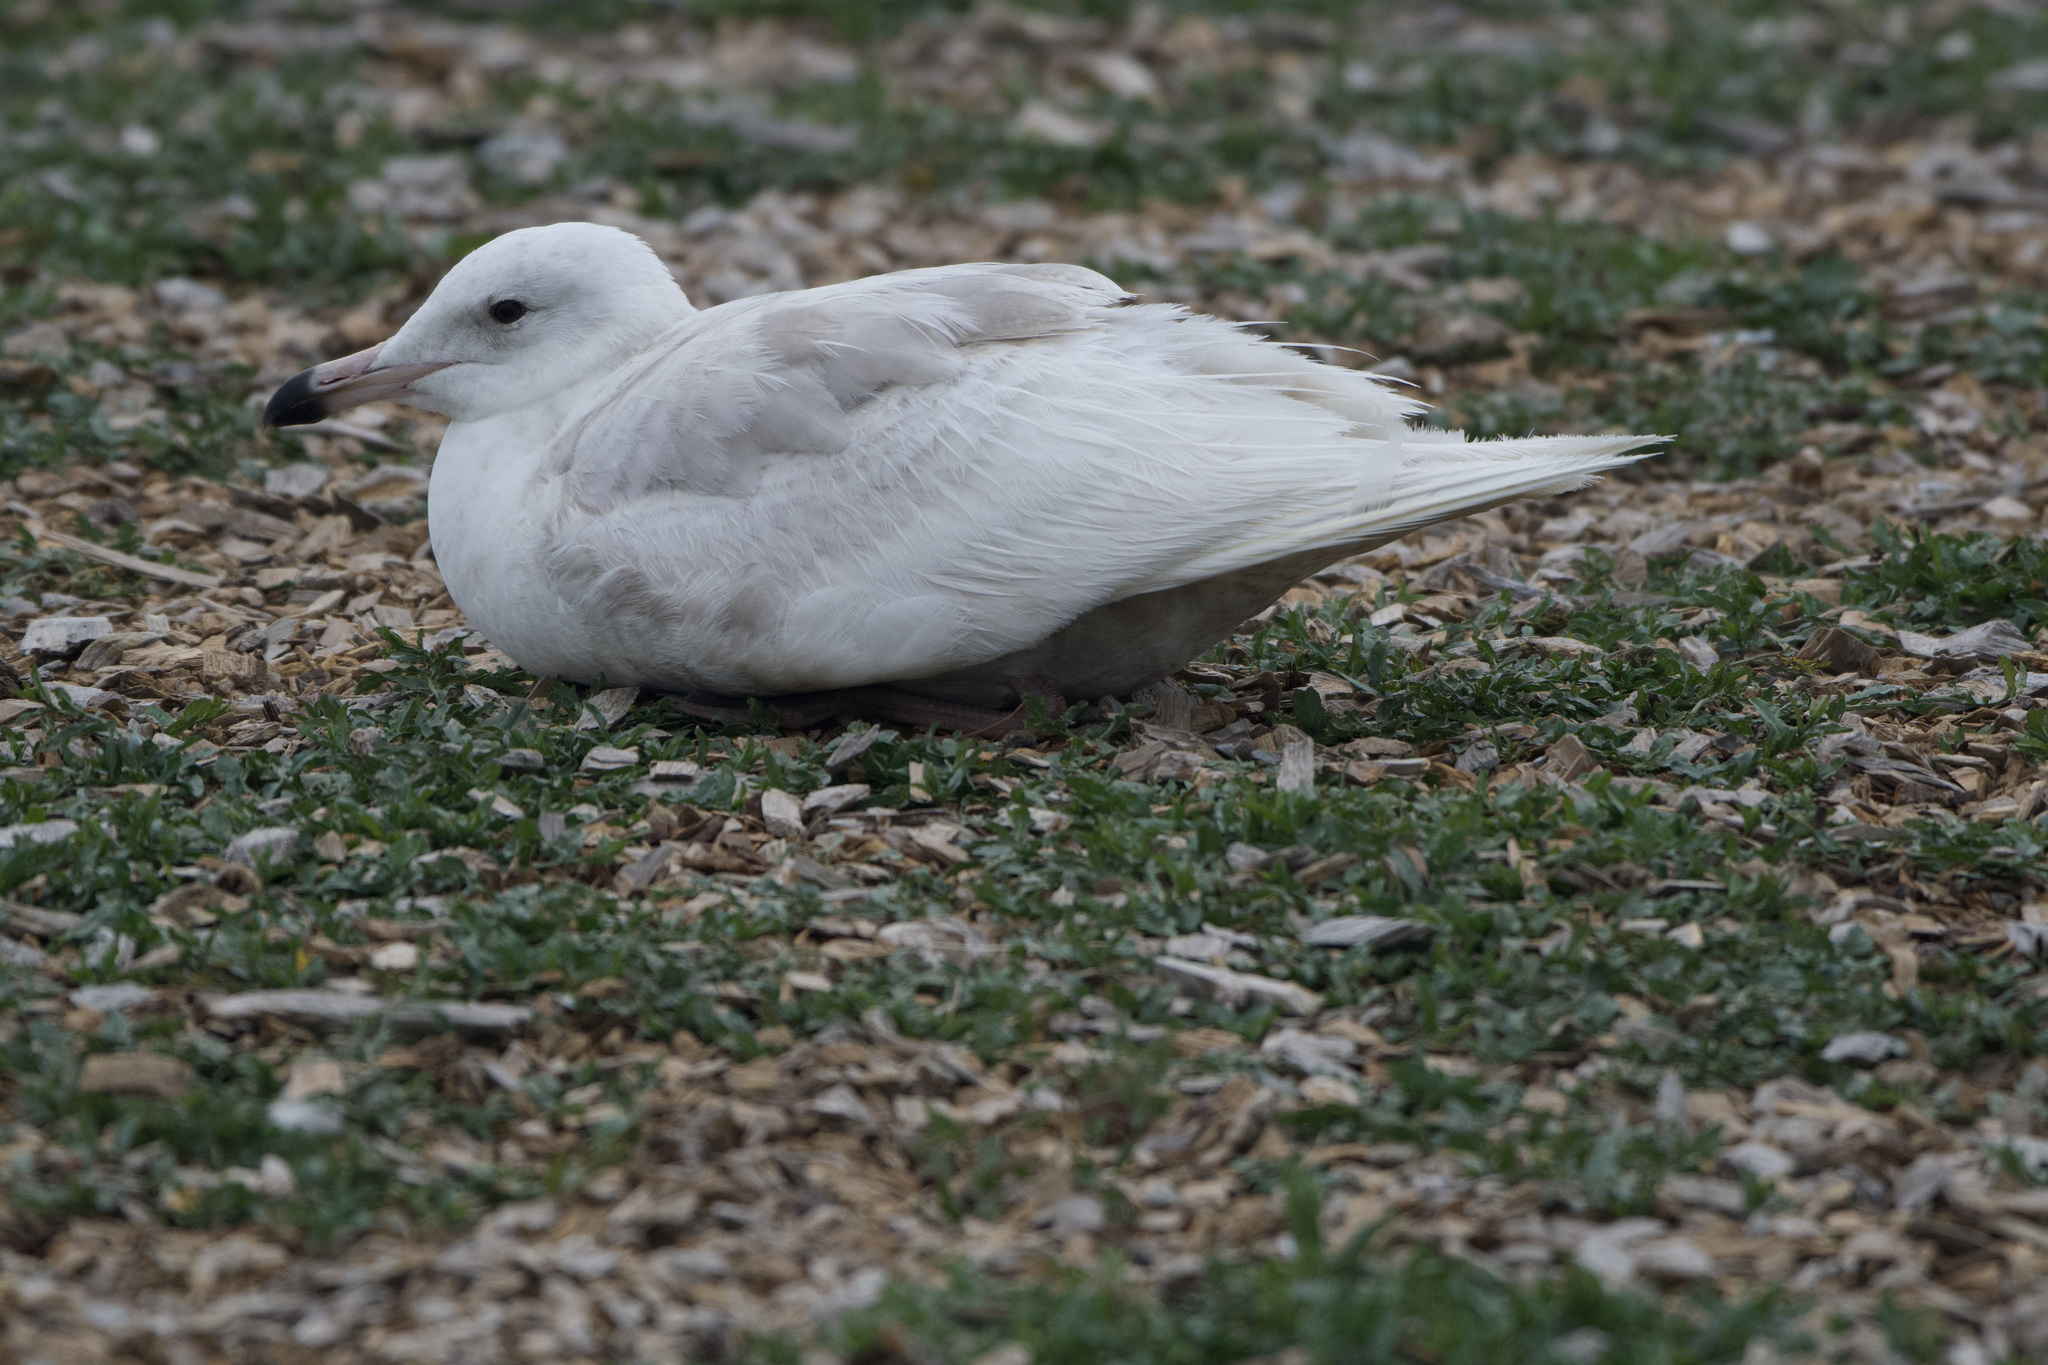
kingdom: Animalia
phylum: Chordata
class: Aves
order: Charadriiformes
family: Laridae
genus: Larus
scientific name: Larus
